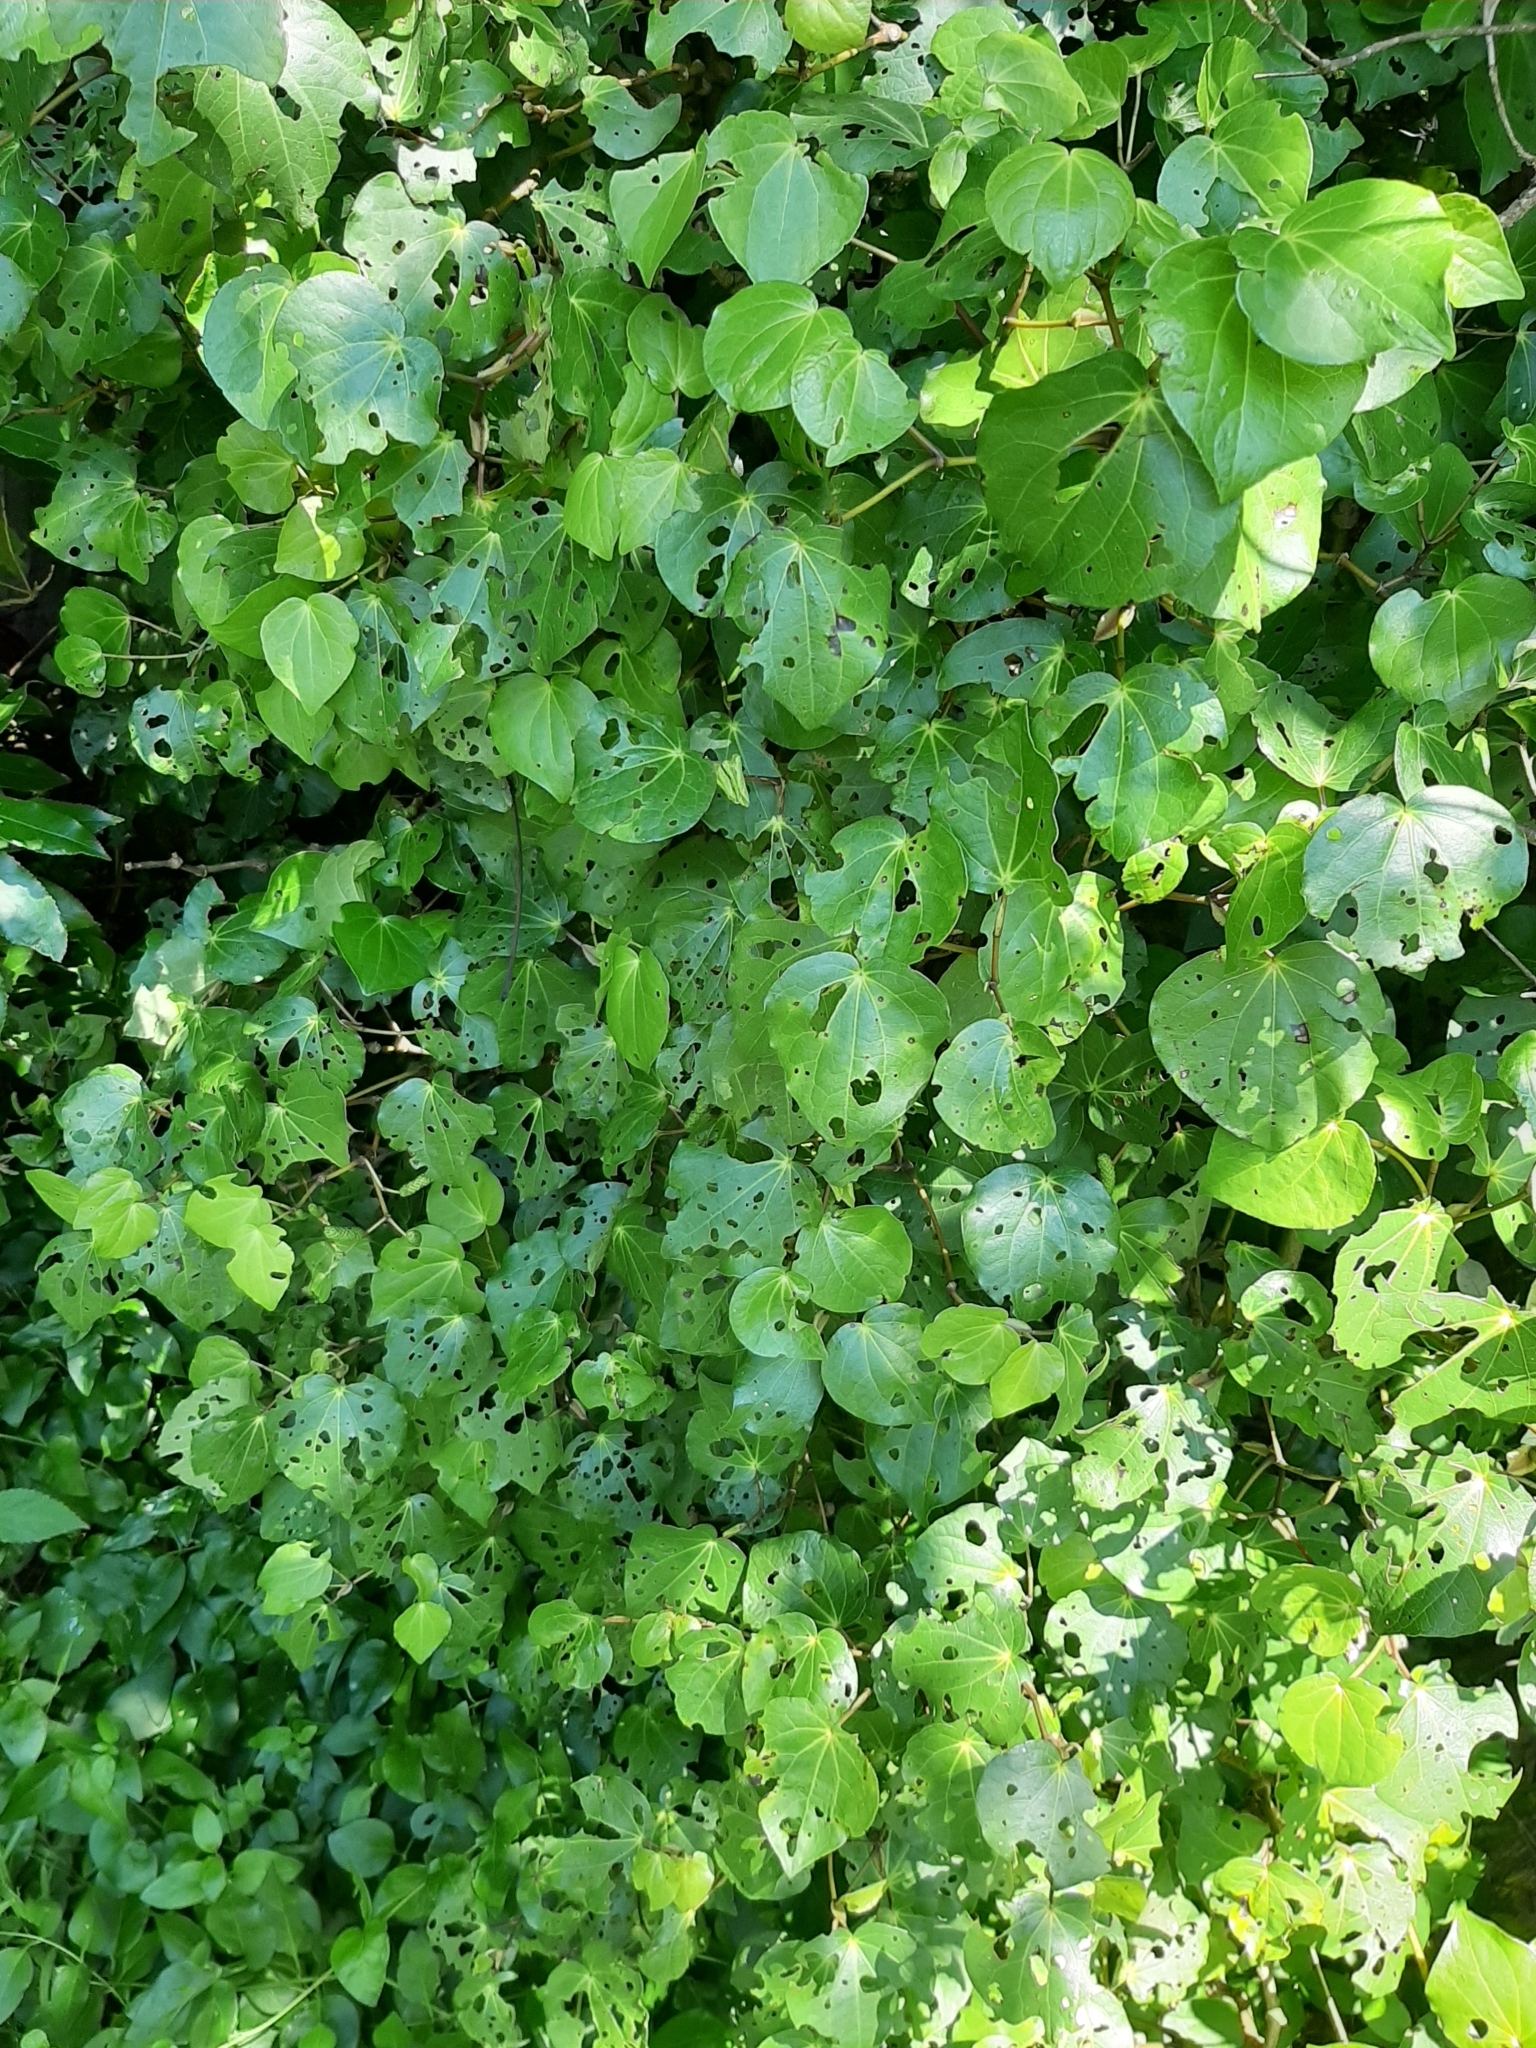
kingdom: Plantae
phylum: Tracheophyta
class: Magnoliopsida
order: Piperales
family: Piperaceae
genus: Macropiper
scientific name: Macropiper excelsum
